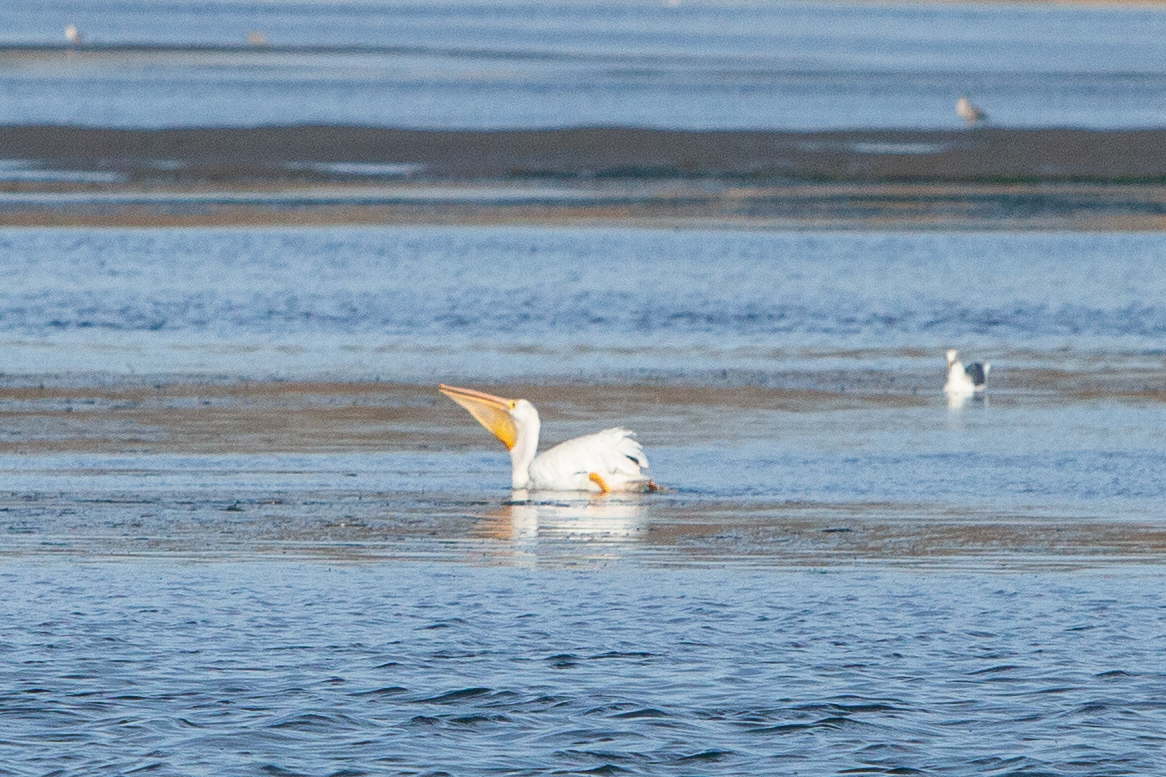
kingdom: Animalia
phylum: Chordata
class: Aves
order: Pelecaniformes
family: Pelecanidae
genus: Pelecanus
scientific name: Pelecanus erythrorhynchos
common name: American white pelican
